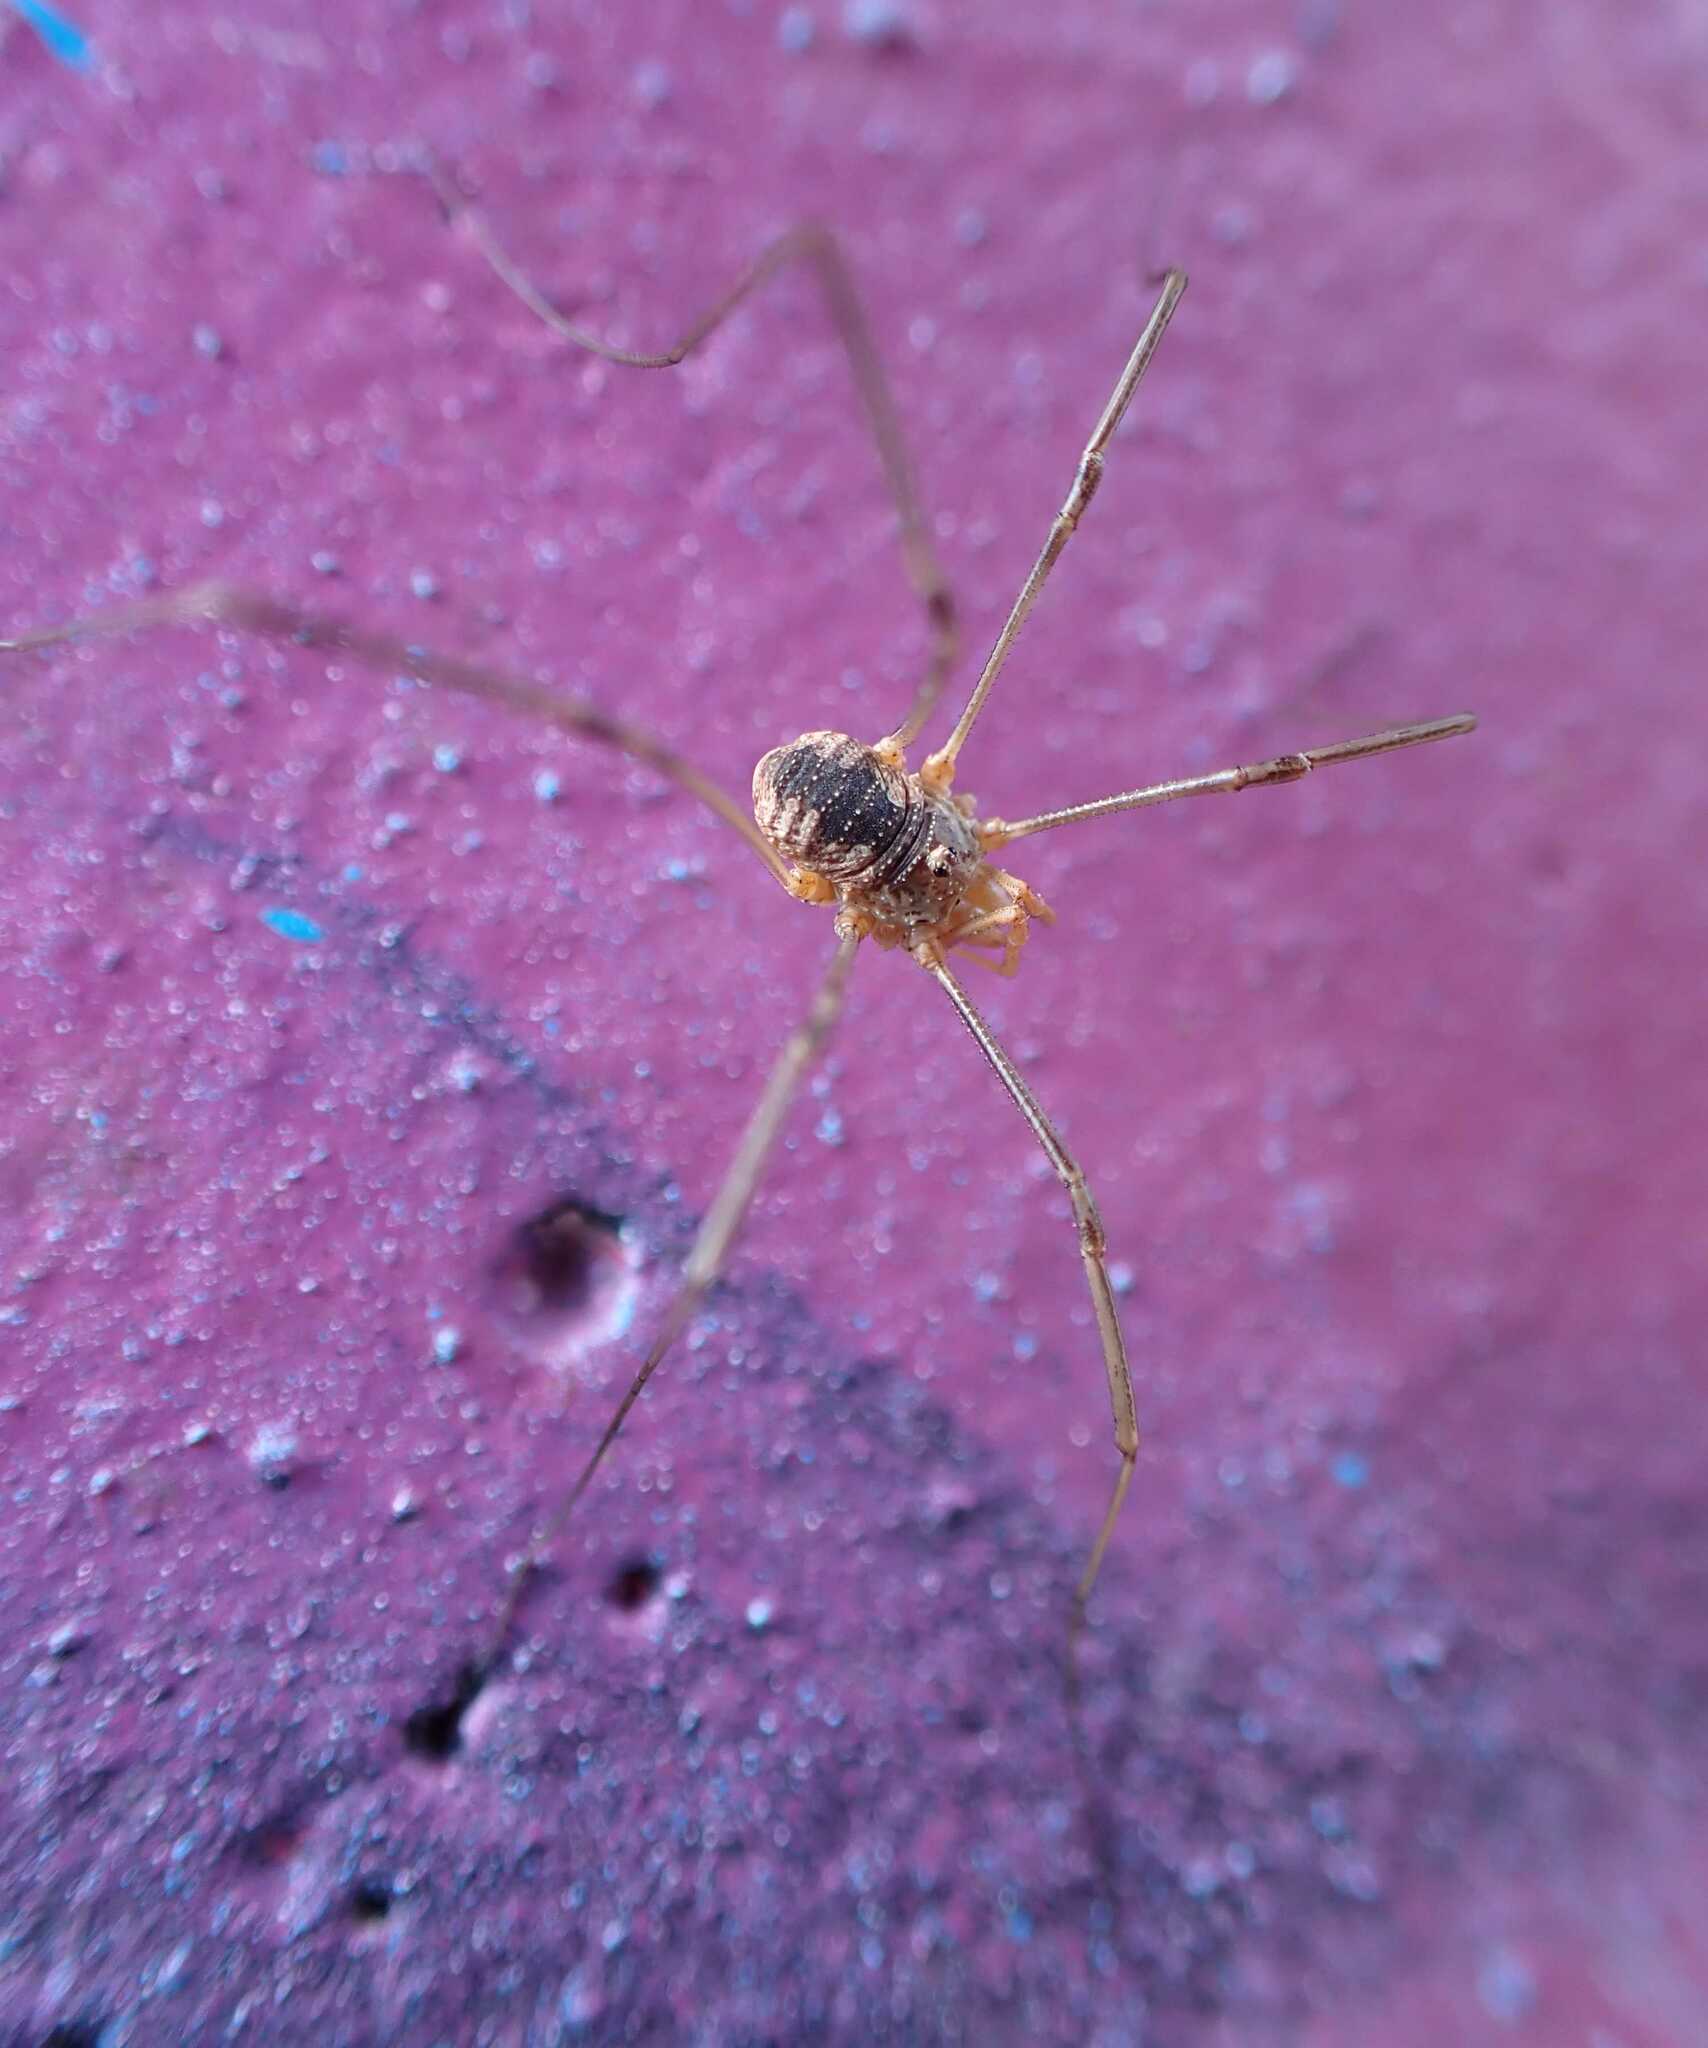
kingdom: Animalia
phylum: Arthropoda
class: Arachnida
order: Opiliones
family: Phalangiidae
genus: Phalangium
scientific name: Phalangium opilio
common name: Daddy longleg
